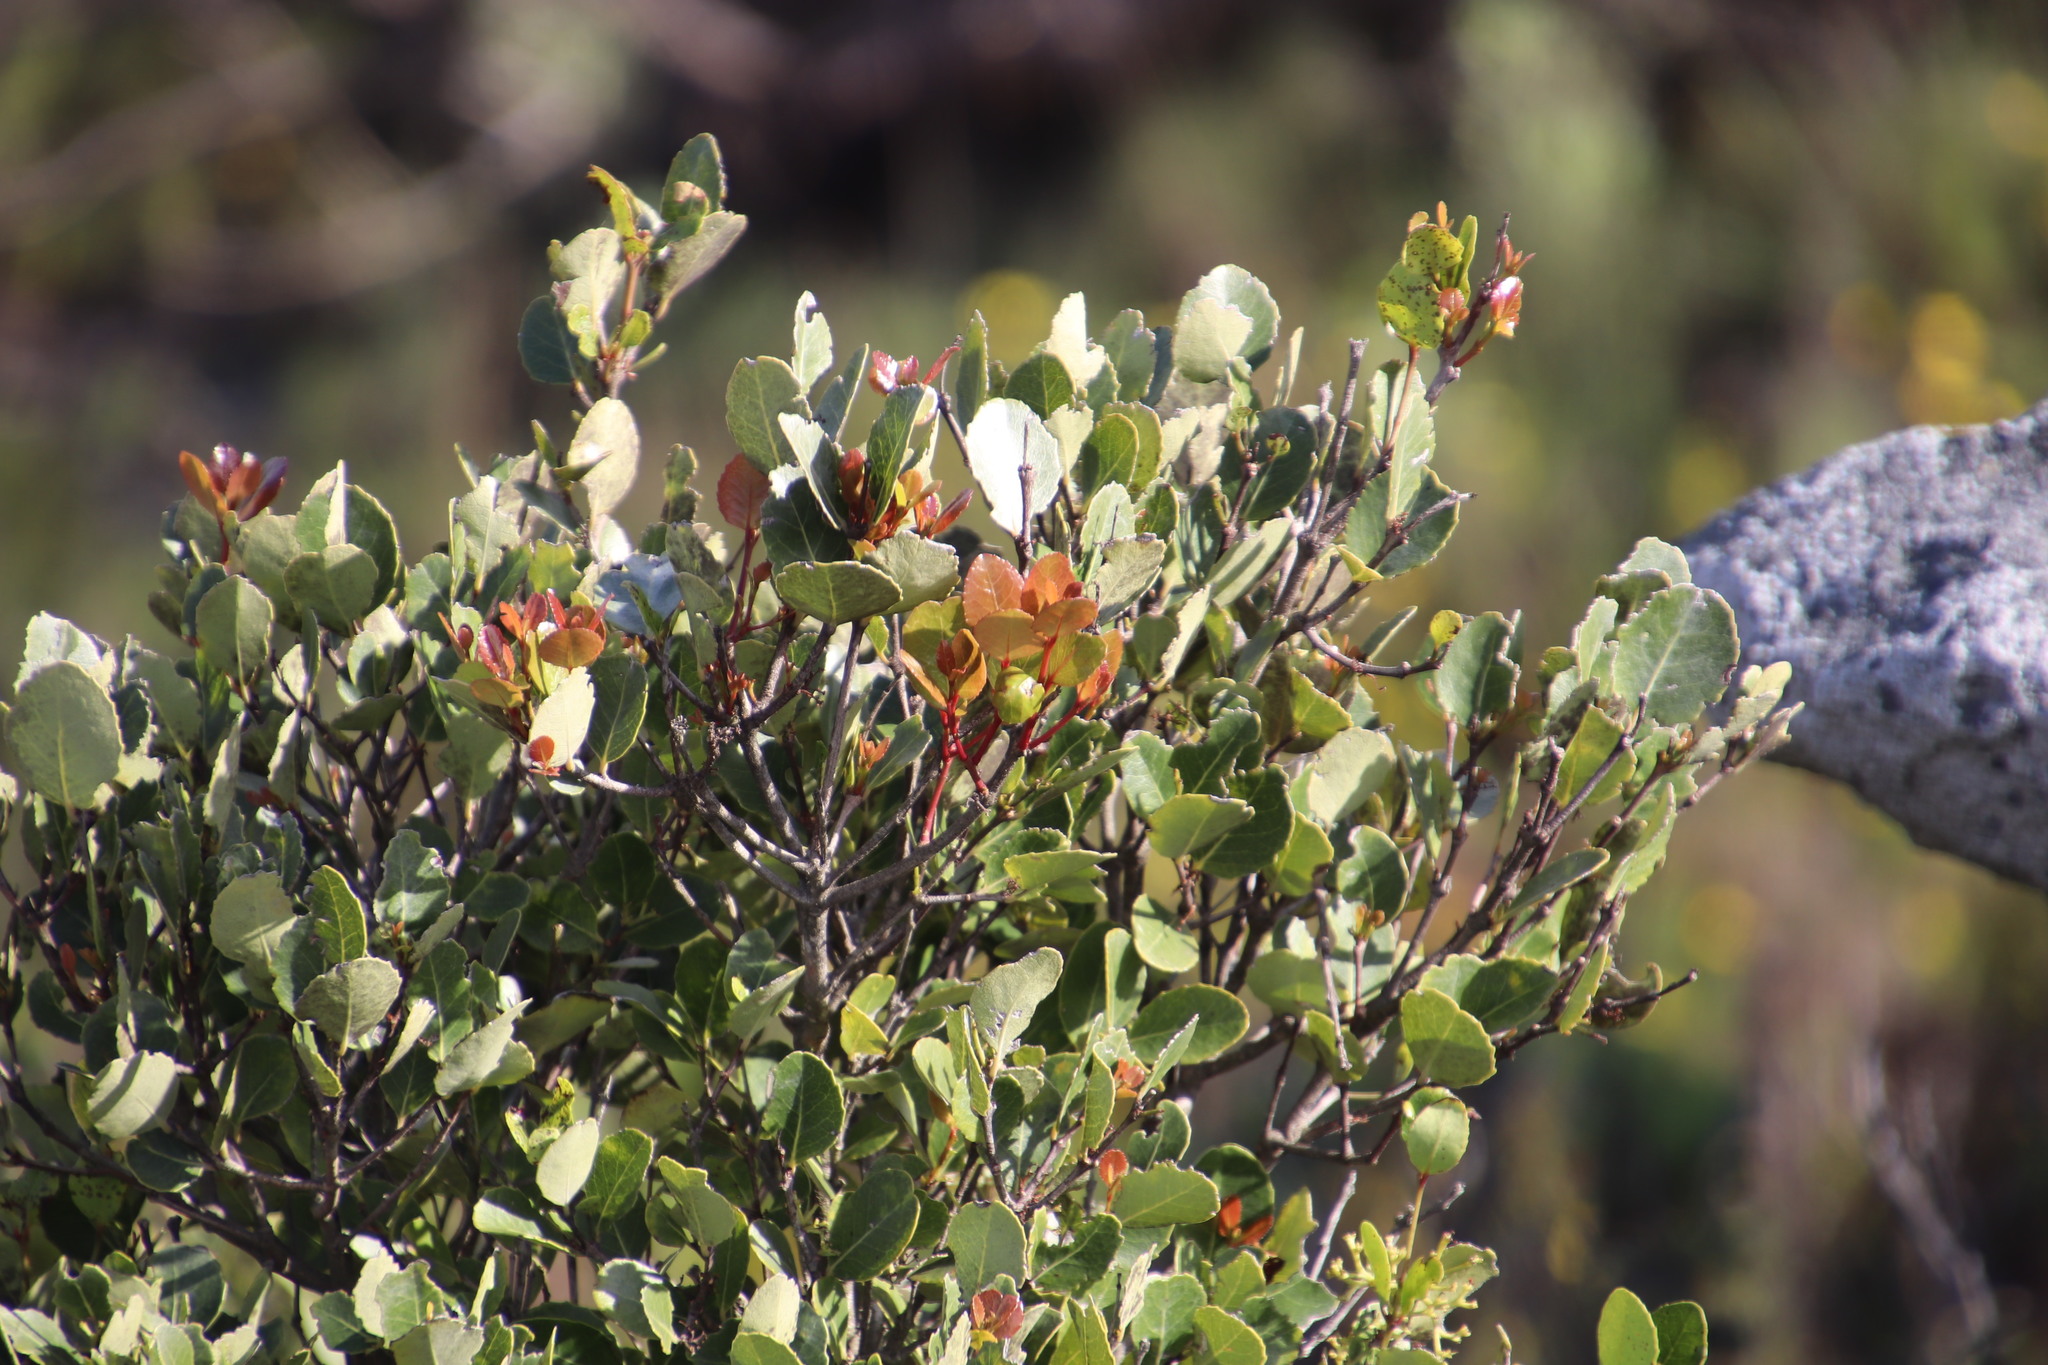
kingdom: Plantae
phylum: Tracheophyta
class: Magnoliopsida
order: Celastrales
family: Celastraceae
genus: Cassine
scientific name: Cassine peragua
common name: Cape saffron
